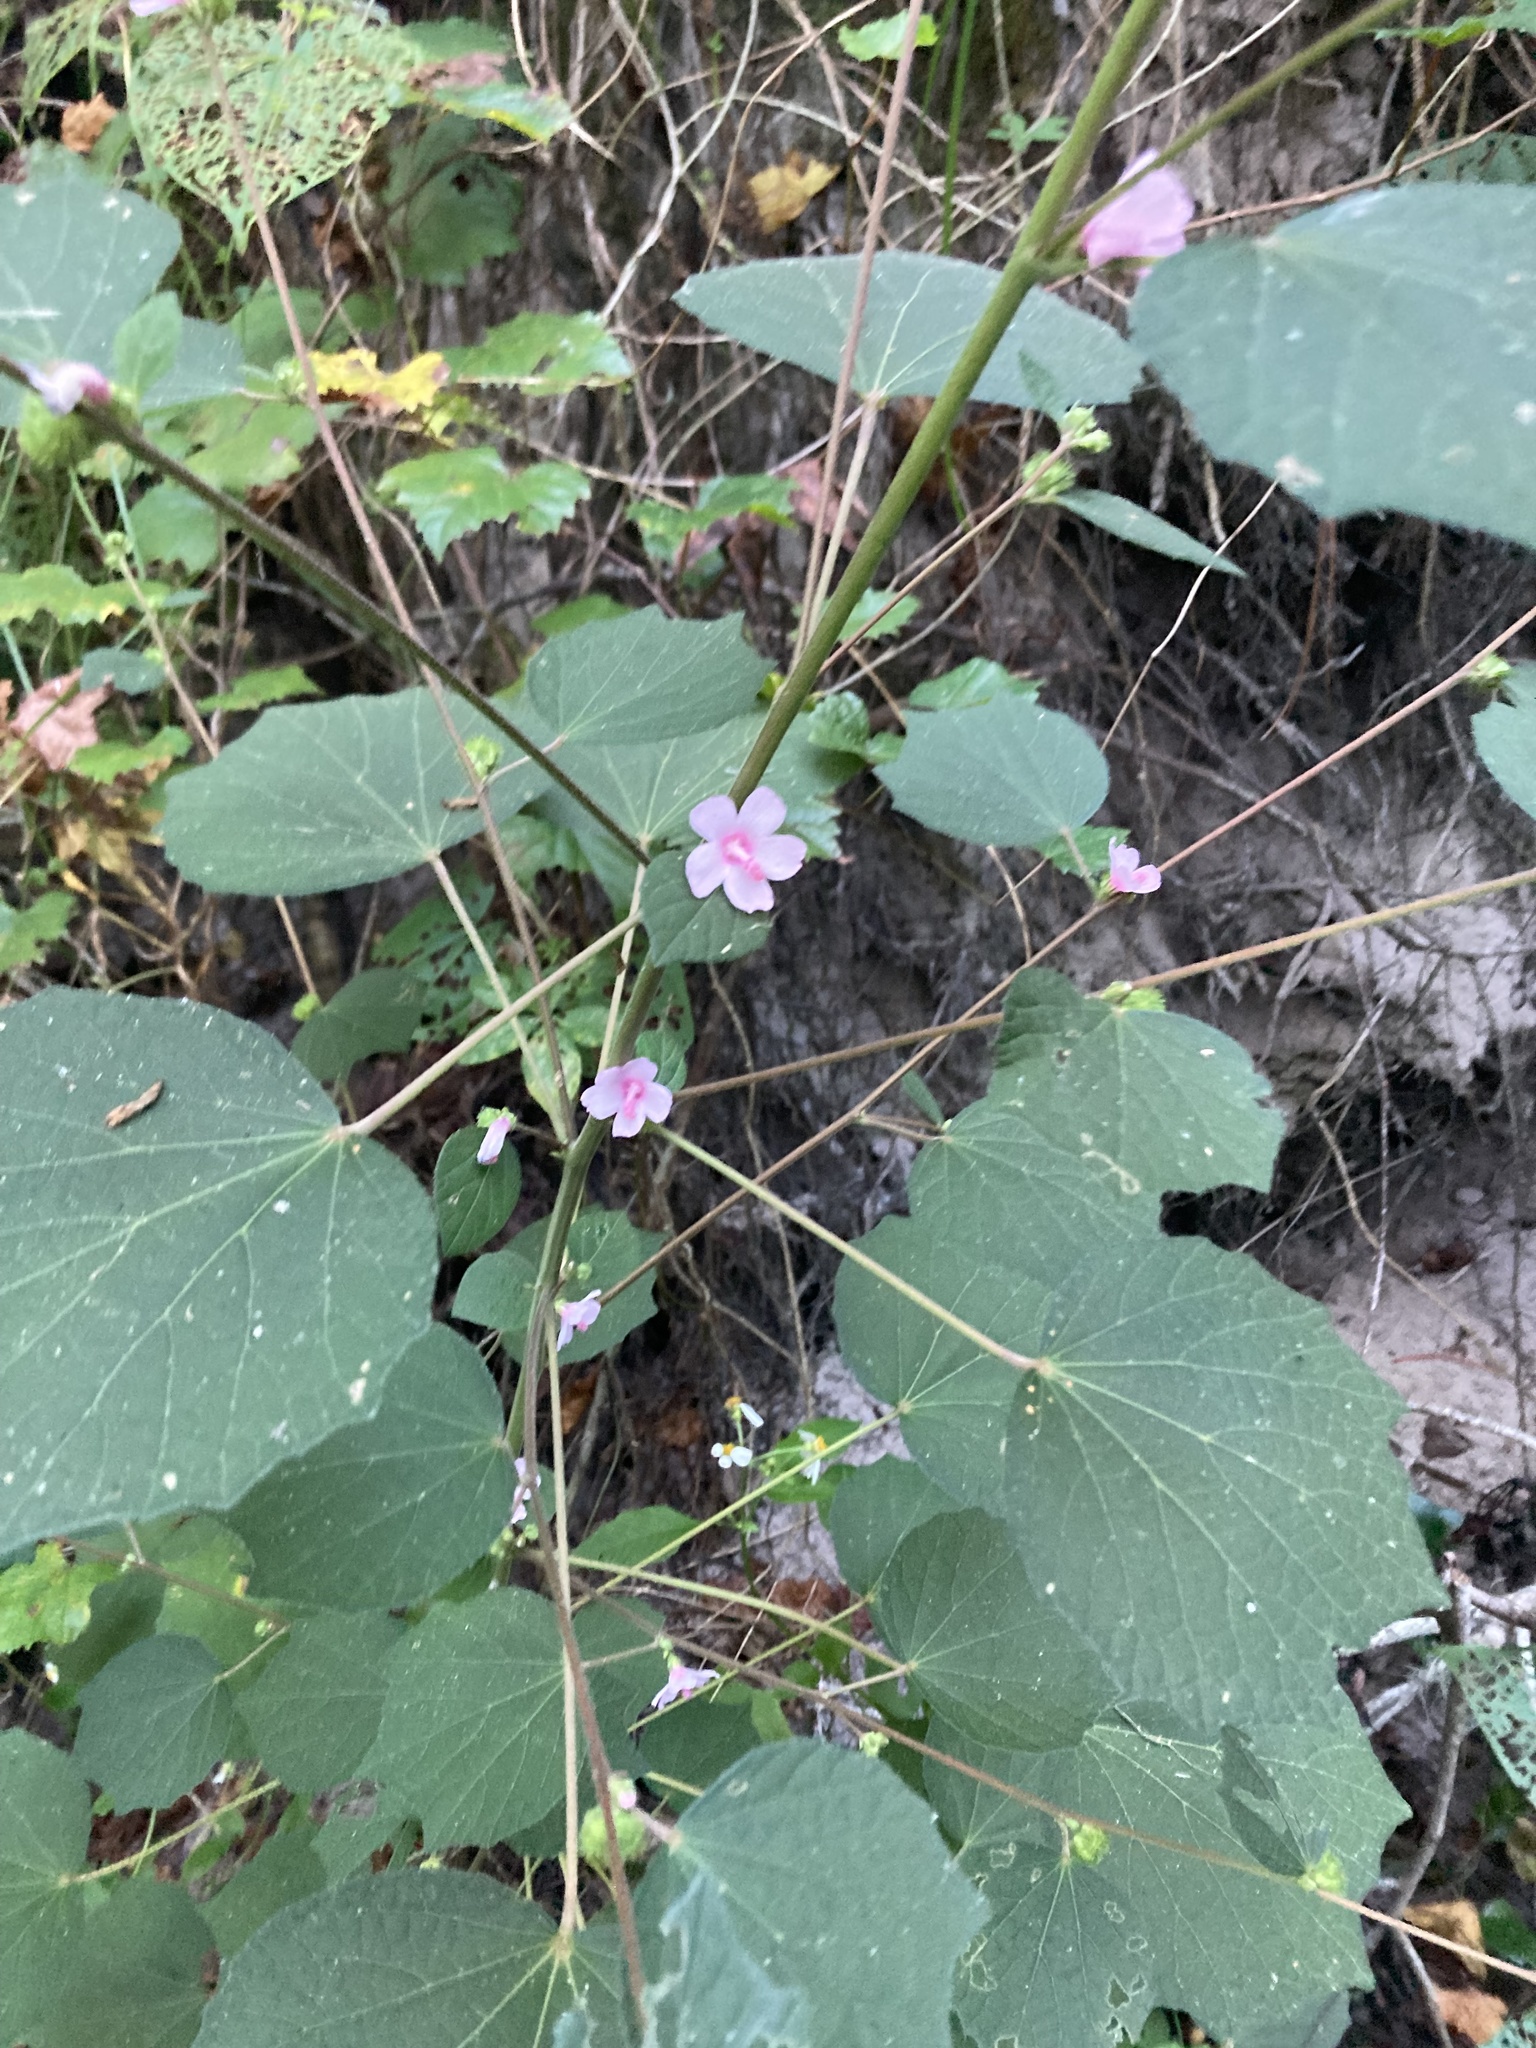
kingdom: Plantae
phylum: Tracheophyta
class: Magnoliopsida
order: Malvales
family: Malvaceae
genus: Urena
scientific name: Urena lobata
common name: Caesarweed
